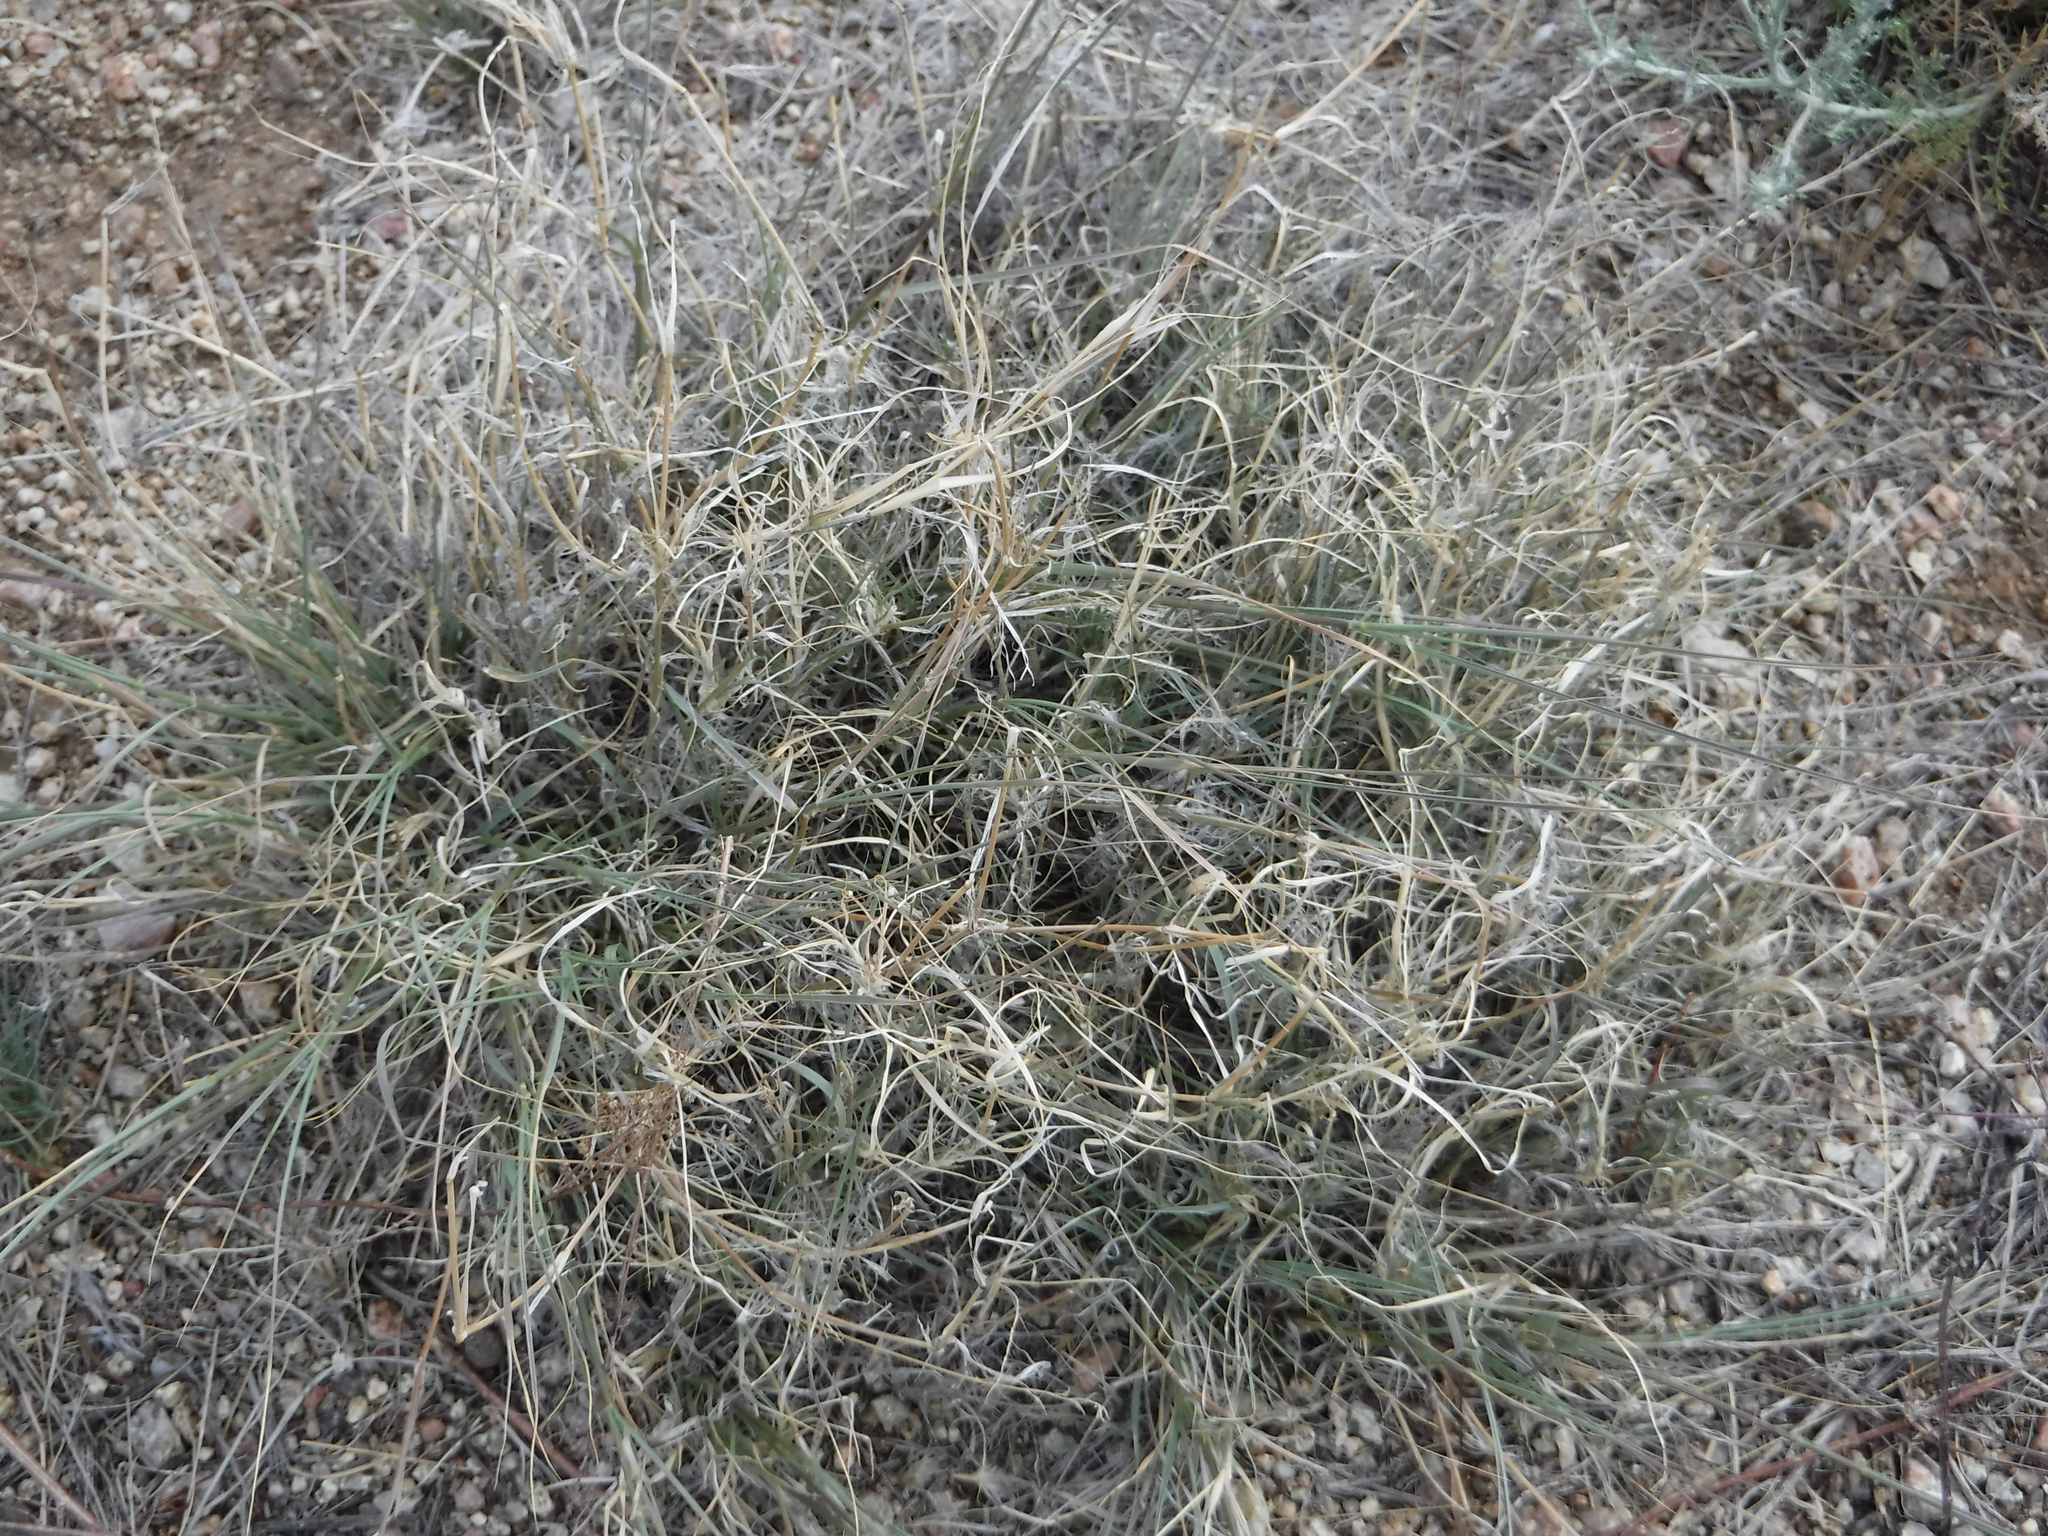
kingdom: Plantae
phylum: Tracheophyta
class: Liliopsida
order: Poales
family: Poaceae
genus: Bouteloua
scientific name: Bouteloua eriopoda
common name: Woolly foot grama
